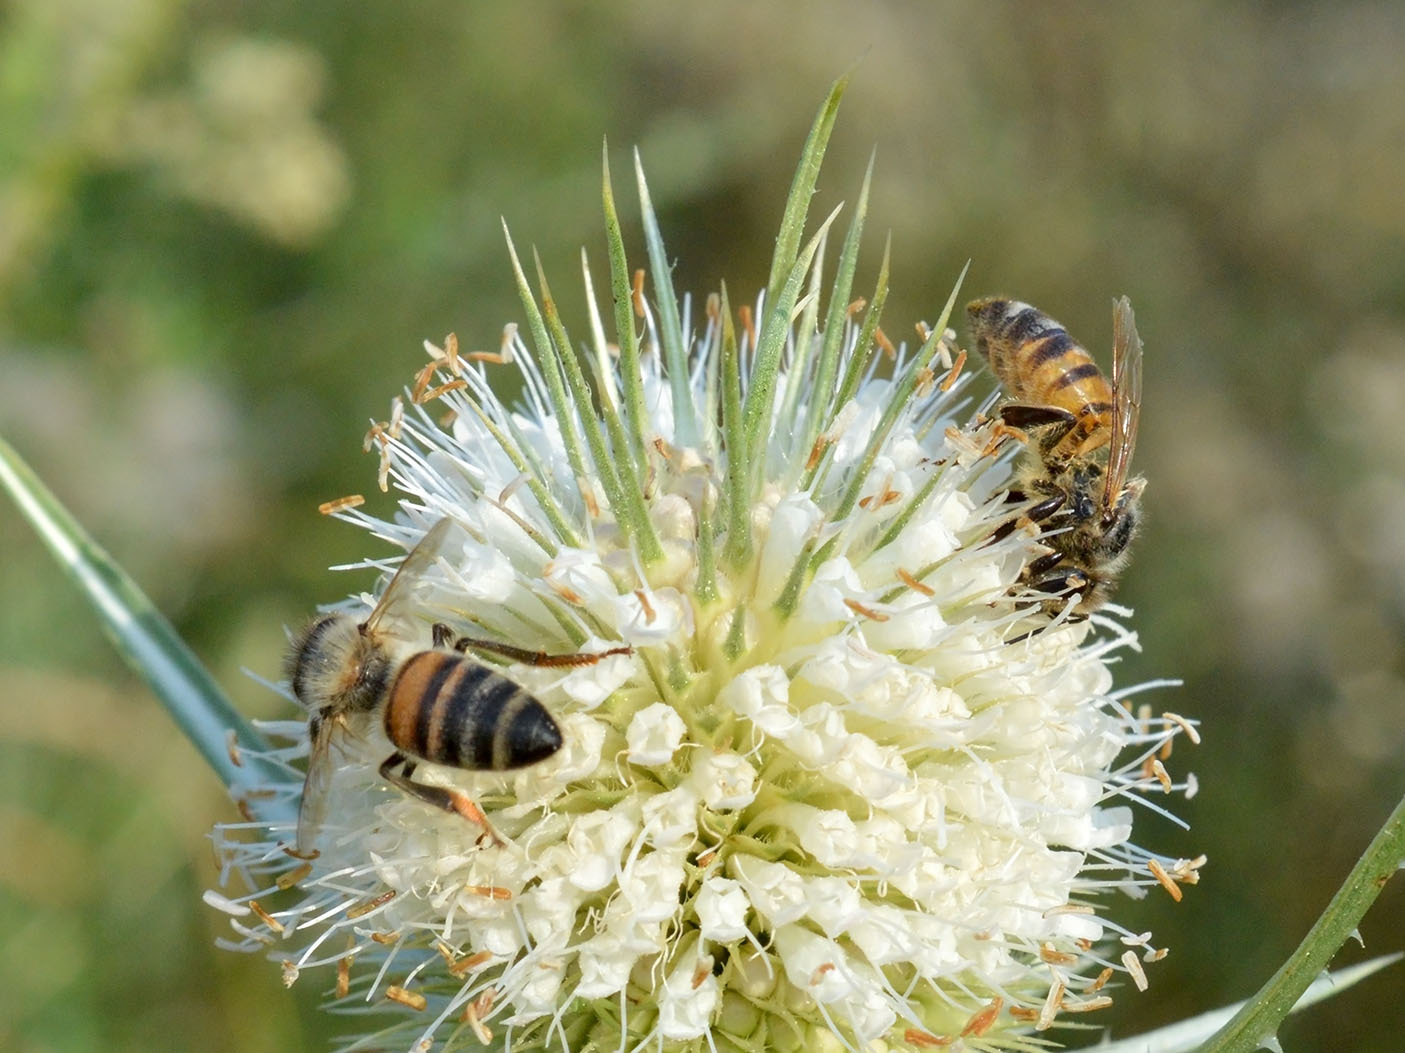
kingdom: Animalia
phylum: Arthropoda
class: Insecta
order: Hymenoptera
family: Apidae
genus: Apis
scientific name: Apis mellifera
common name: Honey bee
